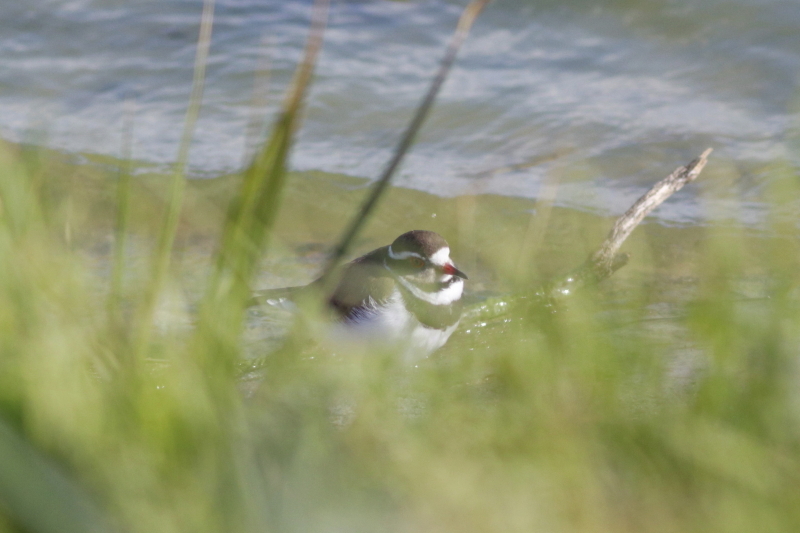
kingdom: Animalia
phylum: Chordata
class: Aves
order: Charadriiformes
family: Charadriidae
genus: Charadrius
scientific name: Charadrius tricollaris
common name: Three-banded plover
